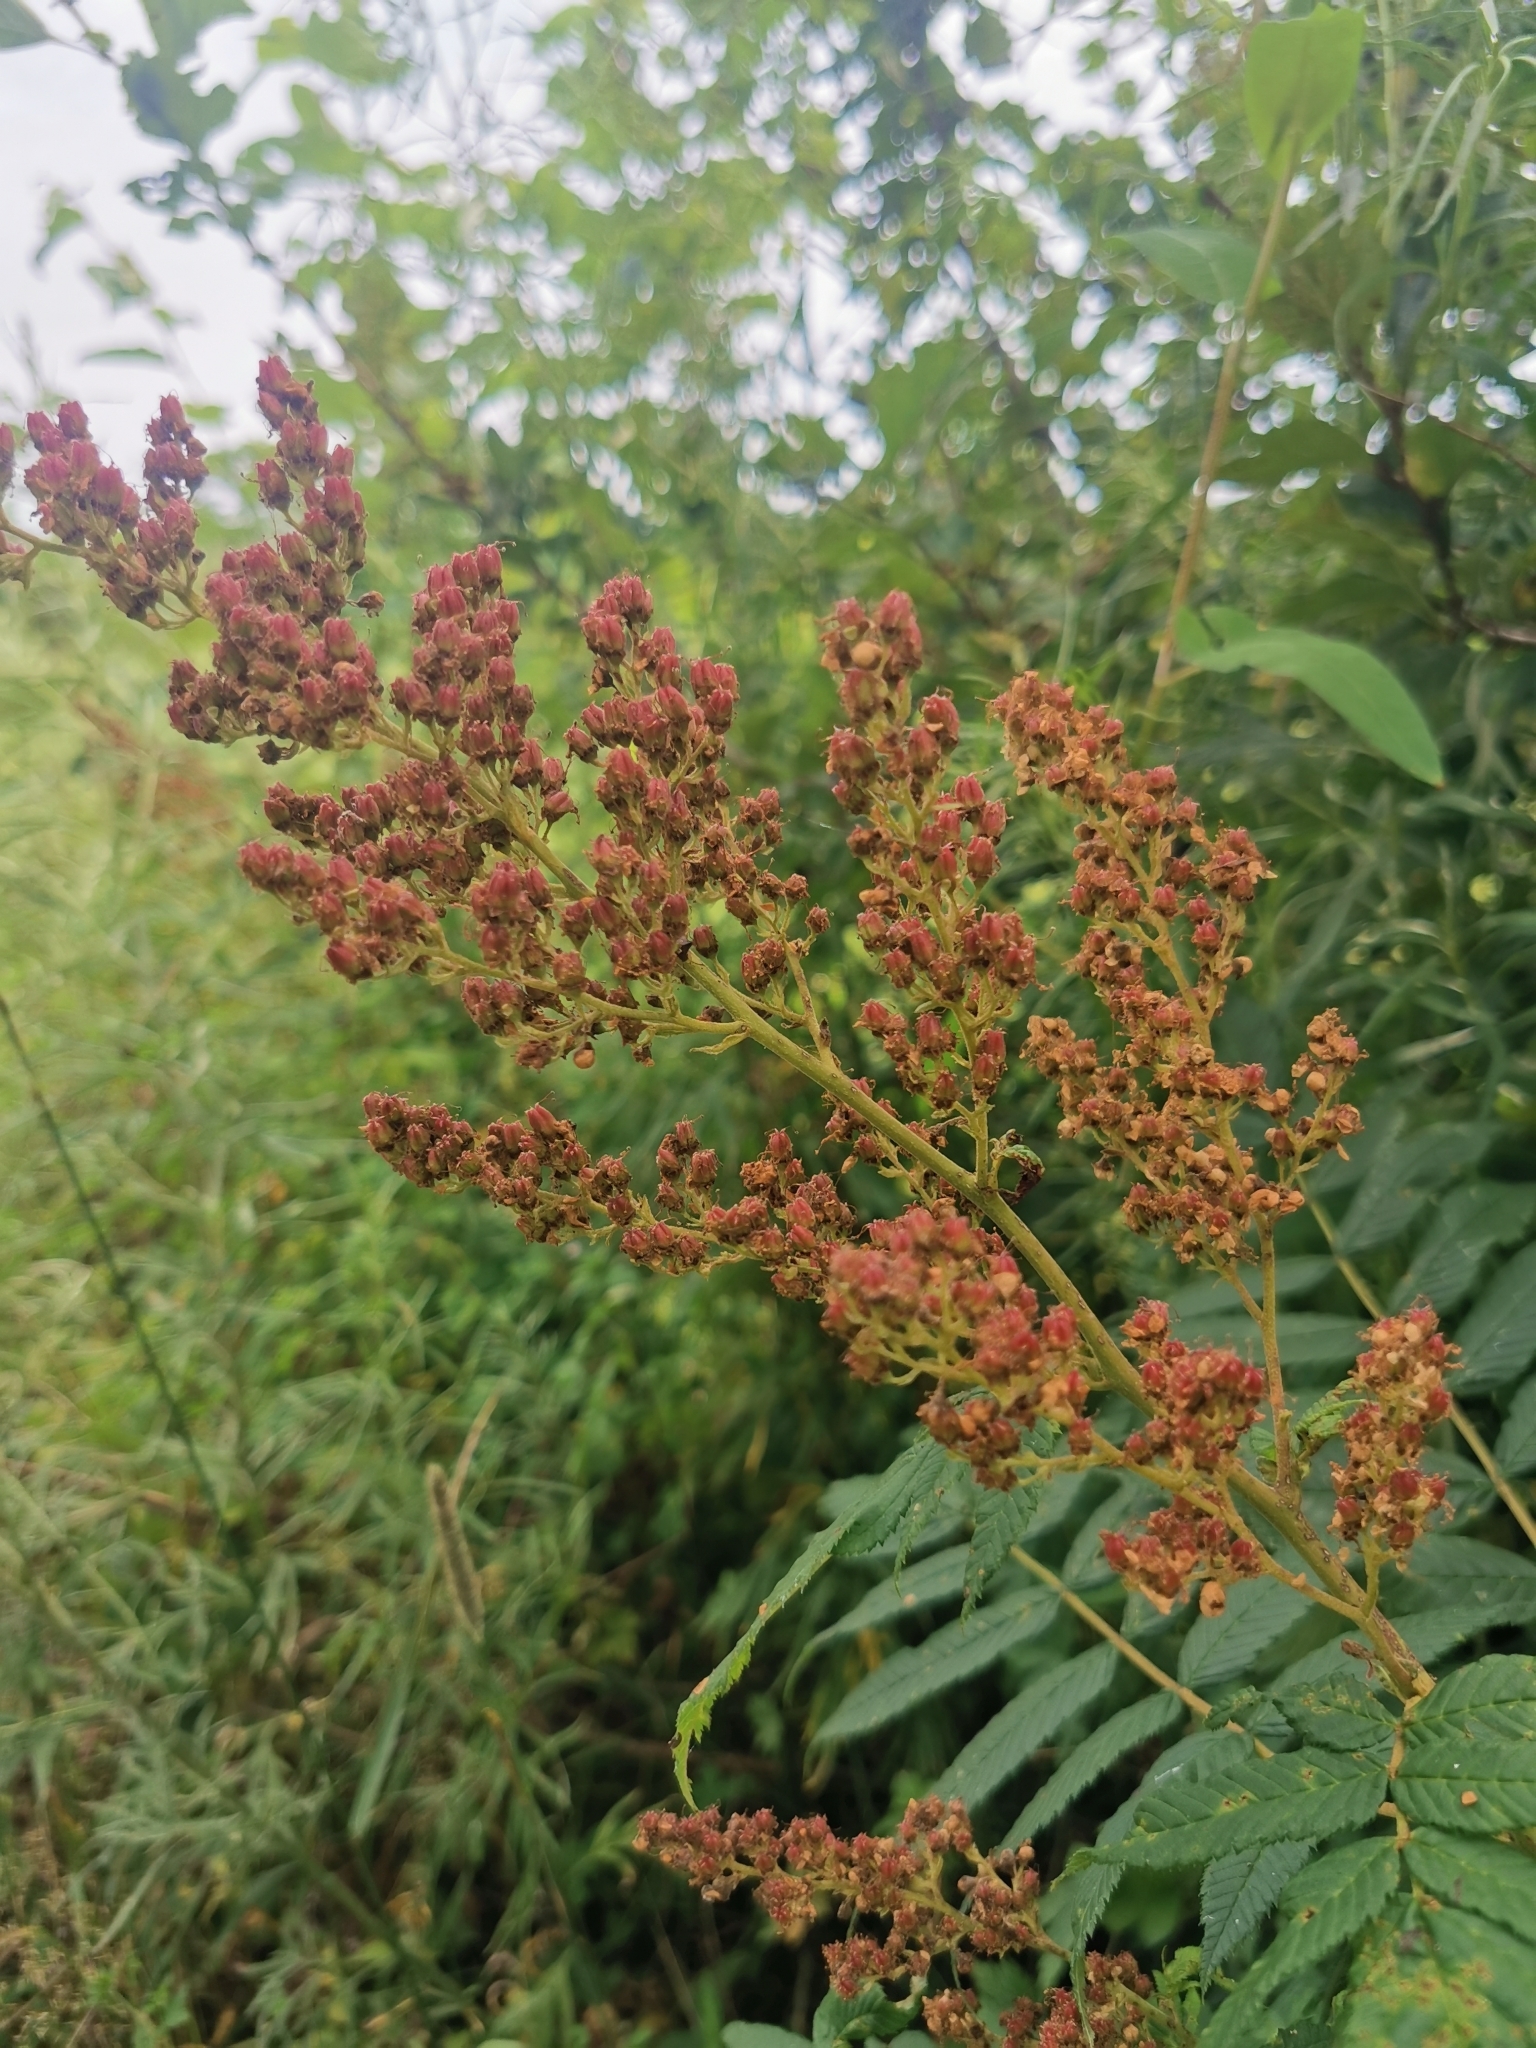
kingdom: Plantae
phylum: Tracheophyta
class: Magnoliopsida
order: Rosales
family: Rosaceae
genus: Sorbaria
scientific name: Sorbaria sorbifolia
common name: False spiraea
